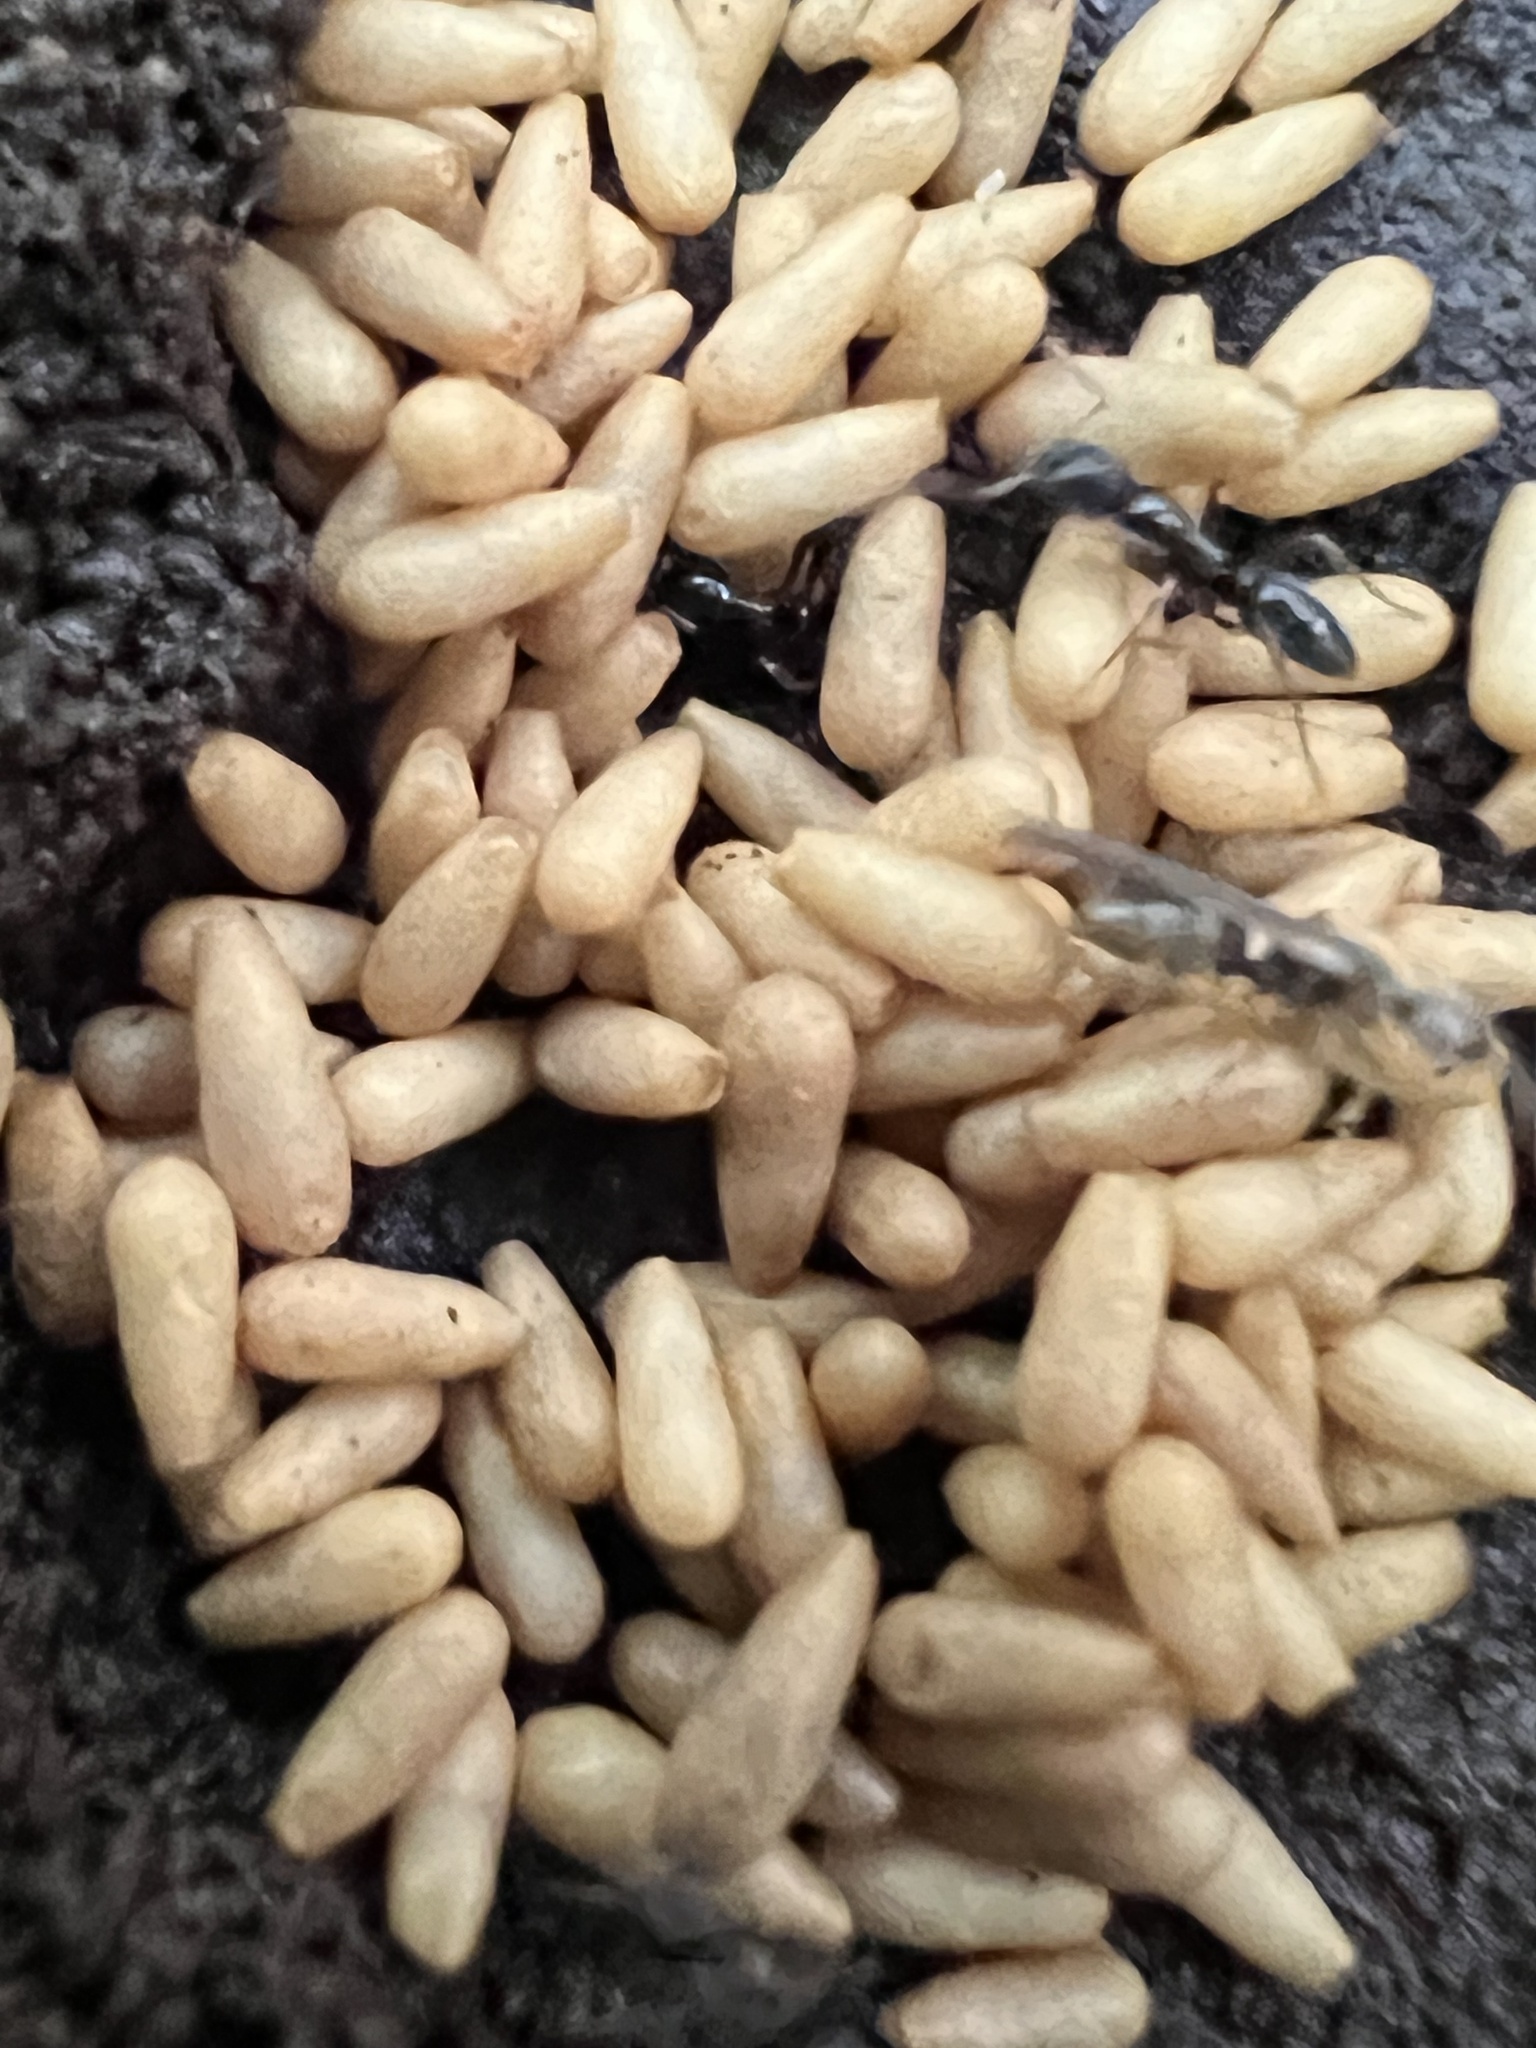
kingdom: Animalia
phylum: Arthropoda
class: Insecta
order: Hymenoptera
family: Formicidae
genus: Pachycondyla
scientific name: Pachycondyla chinensis
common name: Asian needle ant
